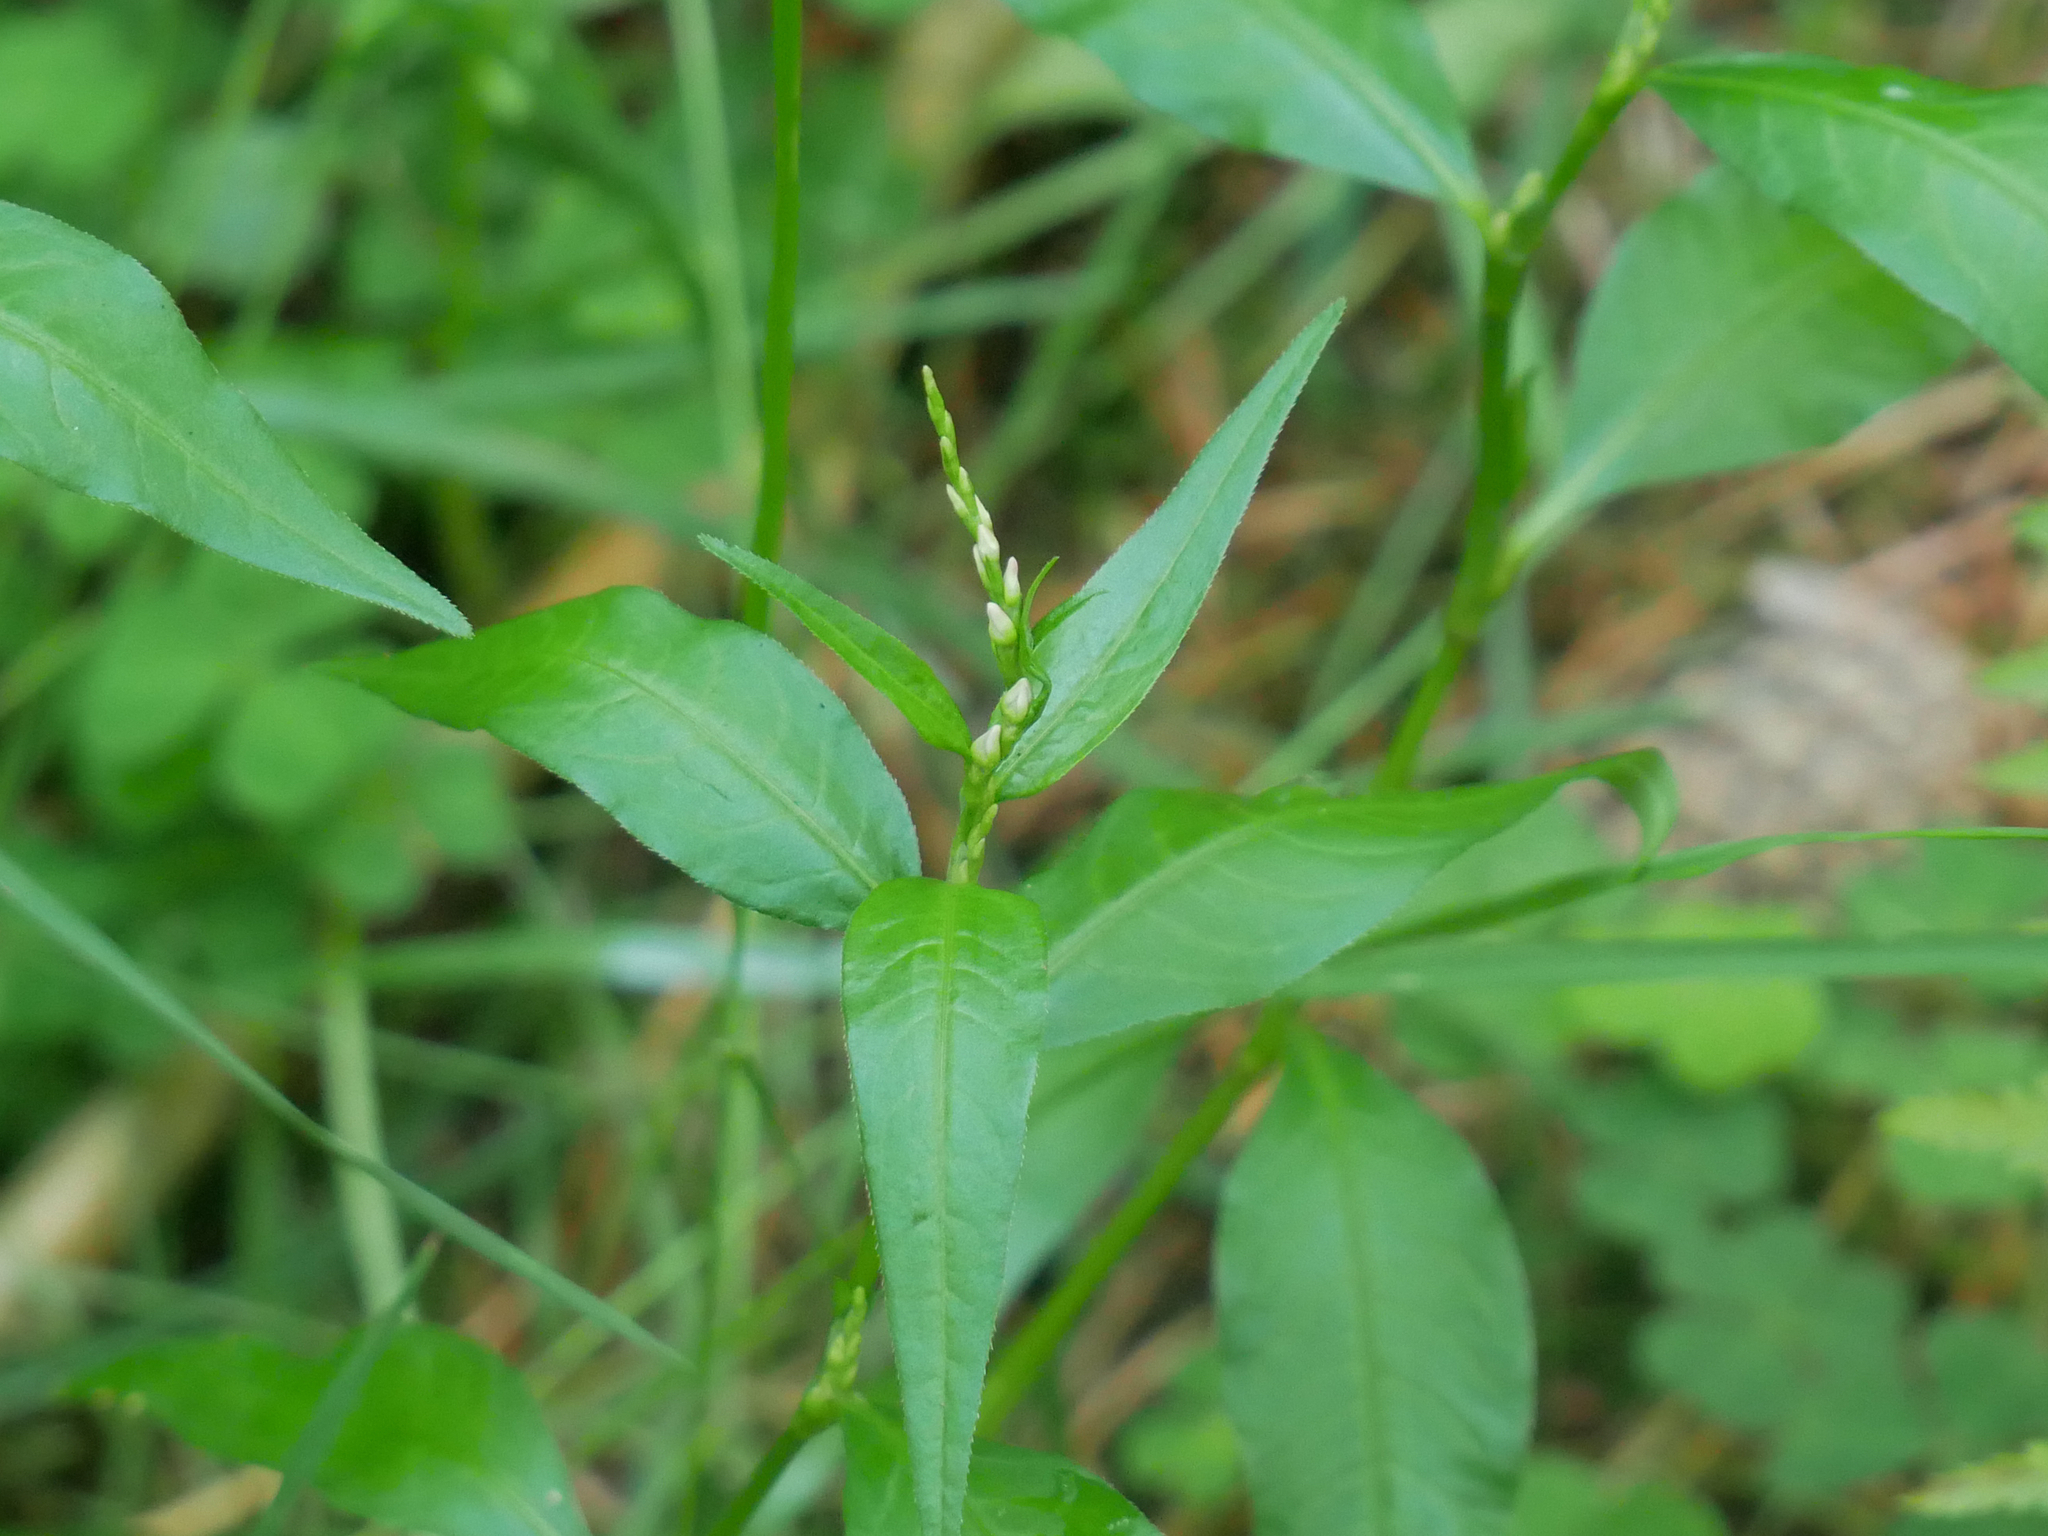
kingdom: Plantae
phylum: Tracheophyta
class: Magnoliopsida
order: Caryophyllales
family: Polygonaceae
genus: Persicaria
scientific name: Persicaria hydropiper
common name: Water-pepper
